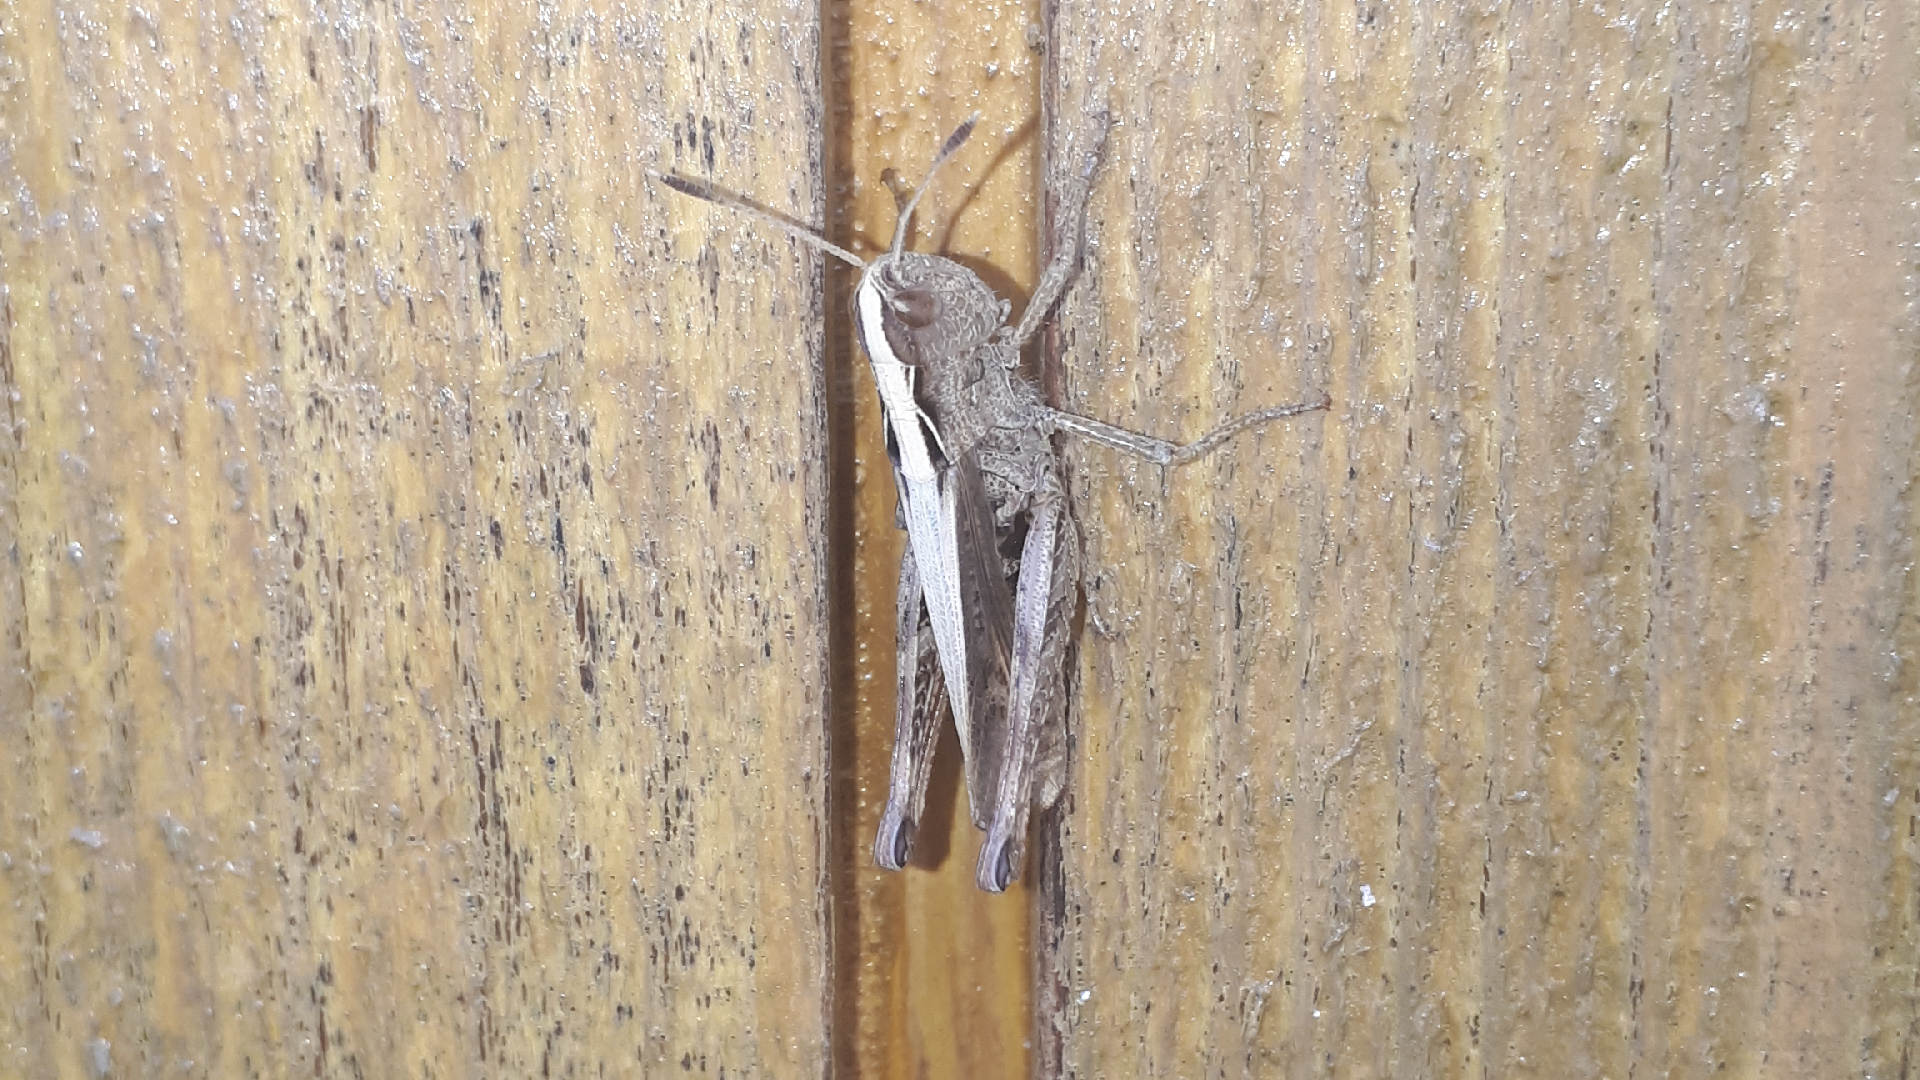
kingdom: Animalia
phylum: Arthropoda
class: Insecta
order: Orthoptera
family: Acrididae
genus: Gomphocerippus
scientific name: Gomphocerippus rufus
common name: Rufous grasshopper
